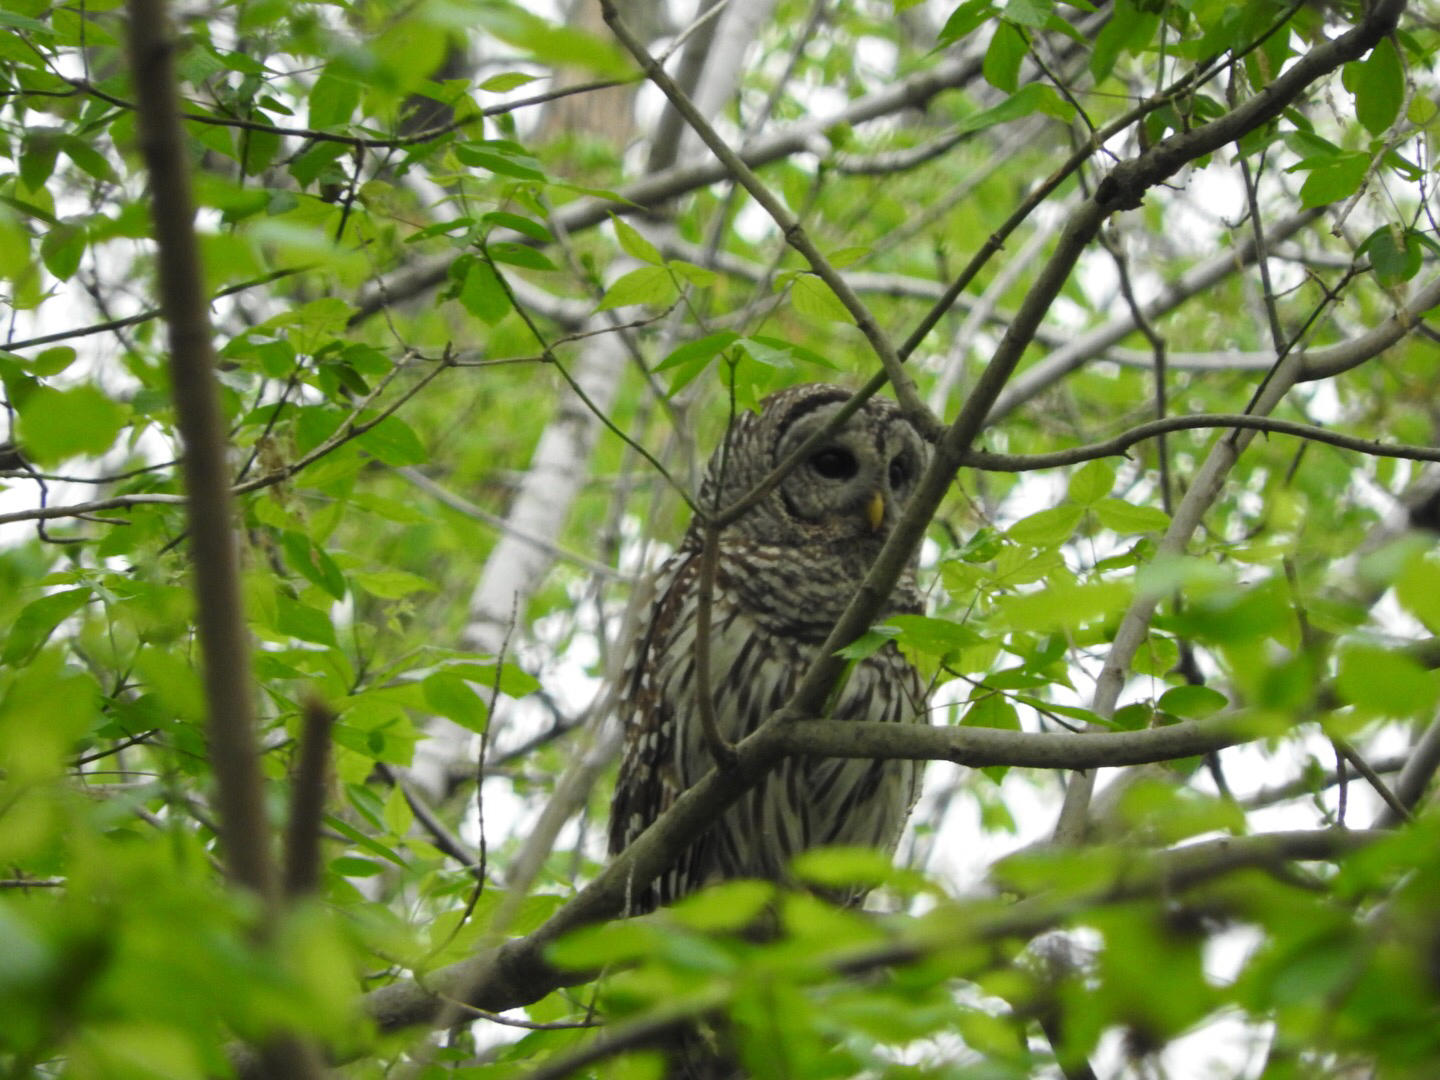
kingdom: Animalia
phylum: Chordata
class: Aves
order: Strigiformes
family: Strigidae
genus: Strix
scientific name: Strix varia
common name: Barred owl
